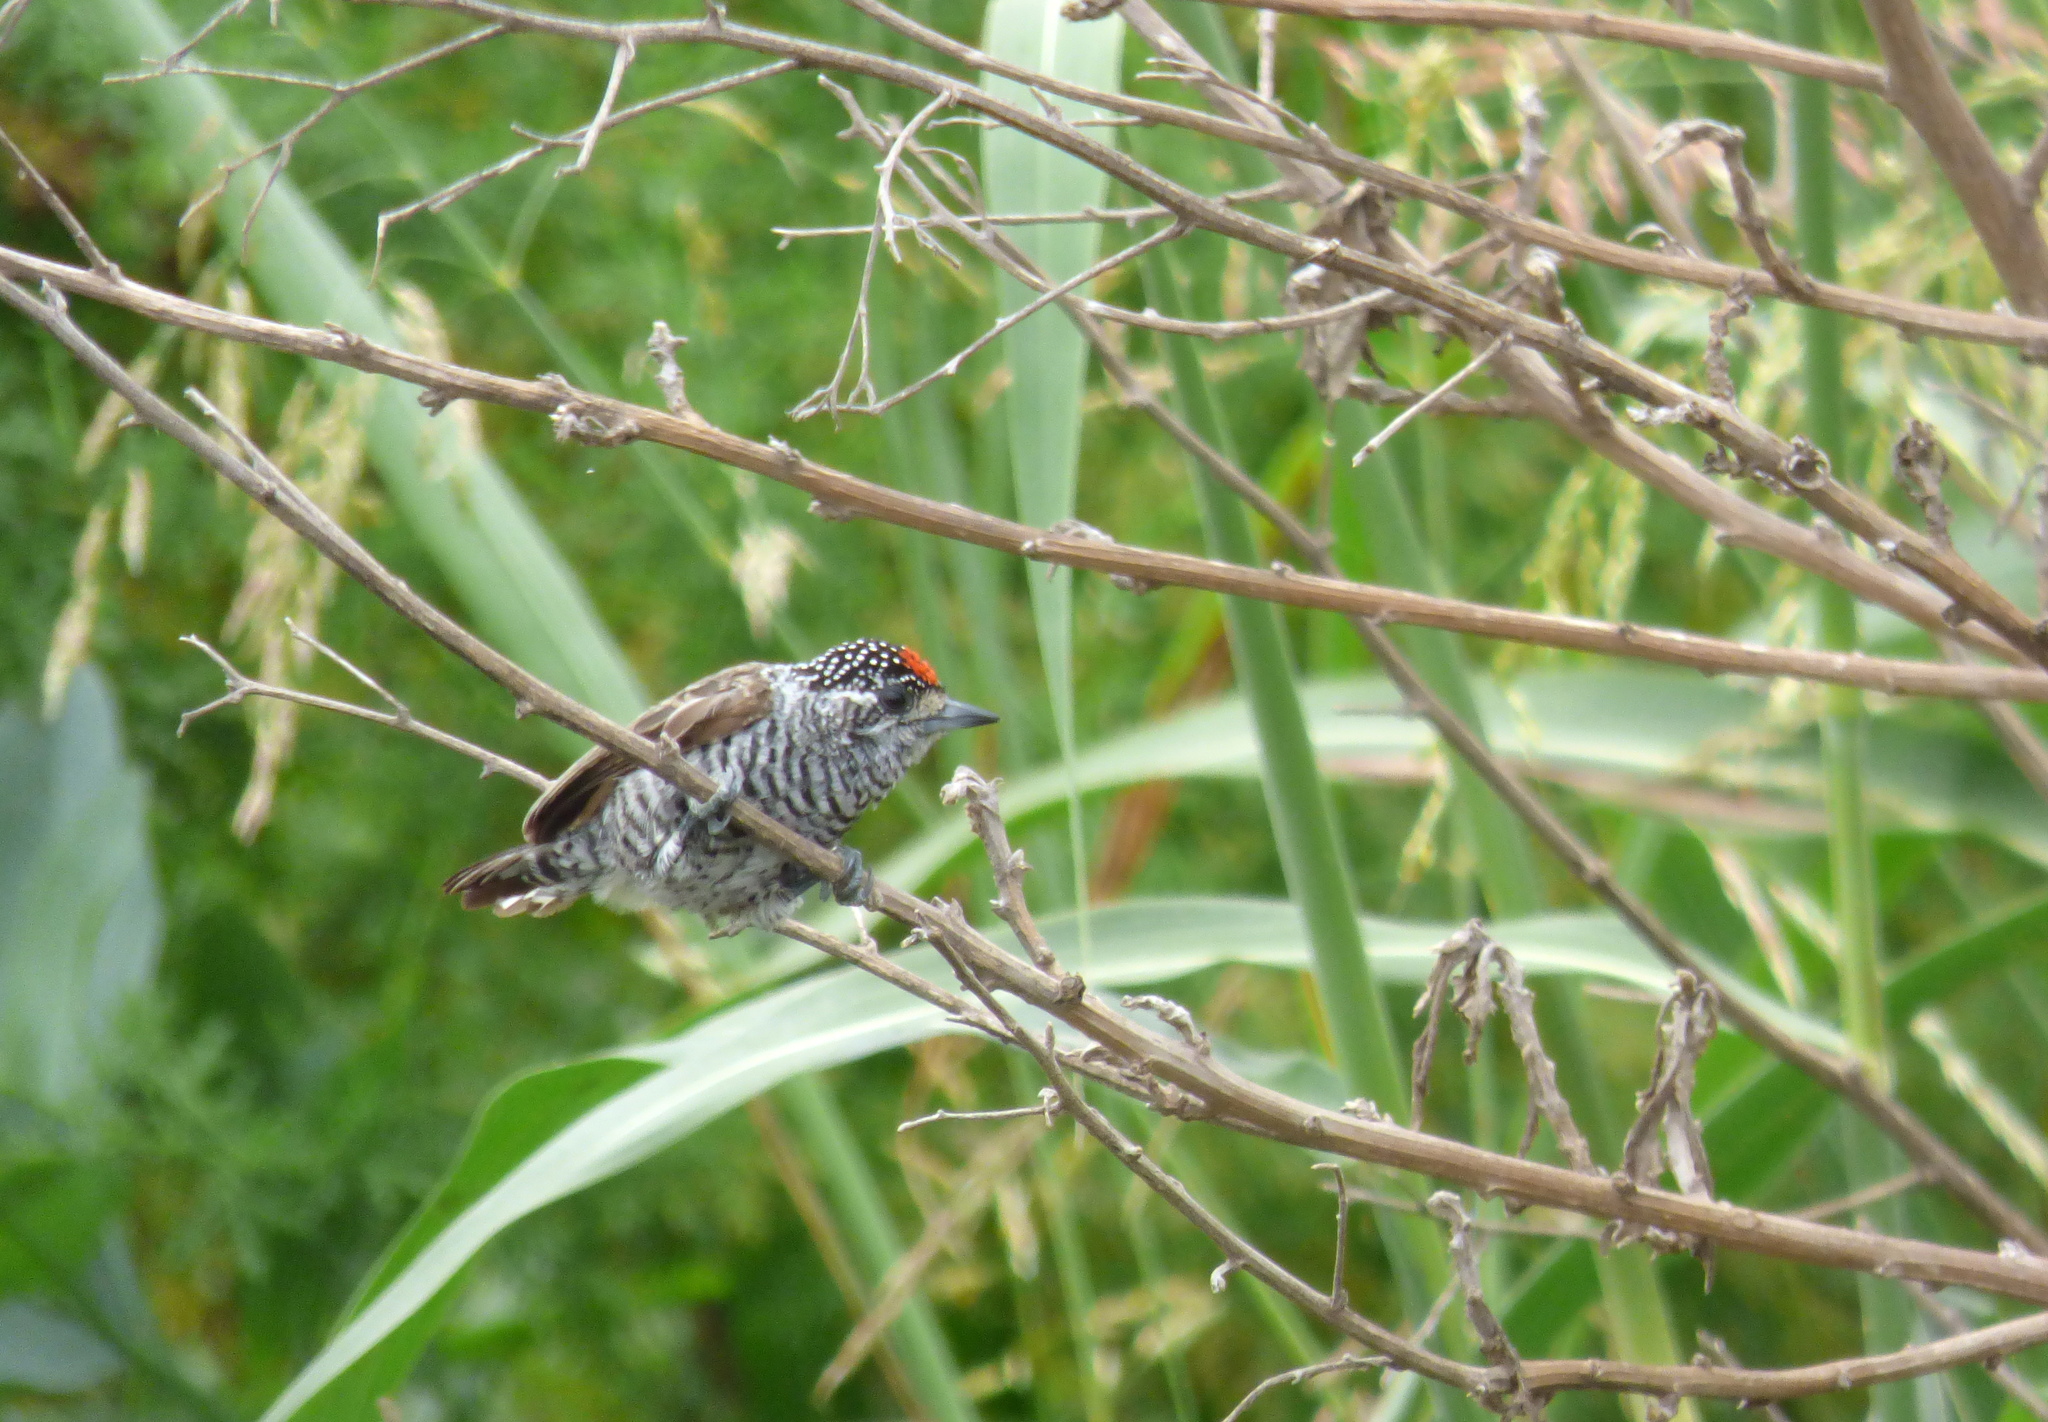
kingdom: Animalia
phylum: Chordata
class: Aves
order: Piciformes
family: Picidae
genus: Picumnus
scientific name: Picumnus cirratus
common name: White-barred piculet
